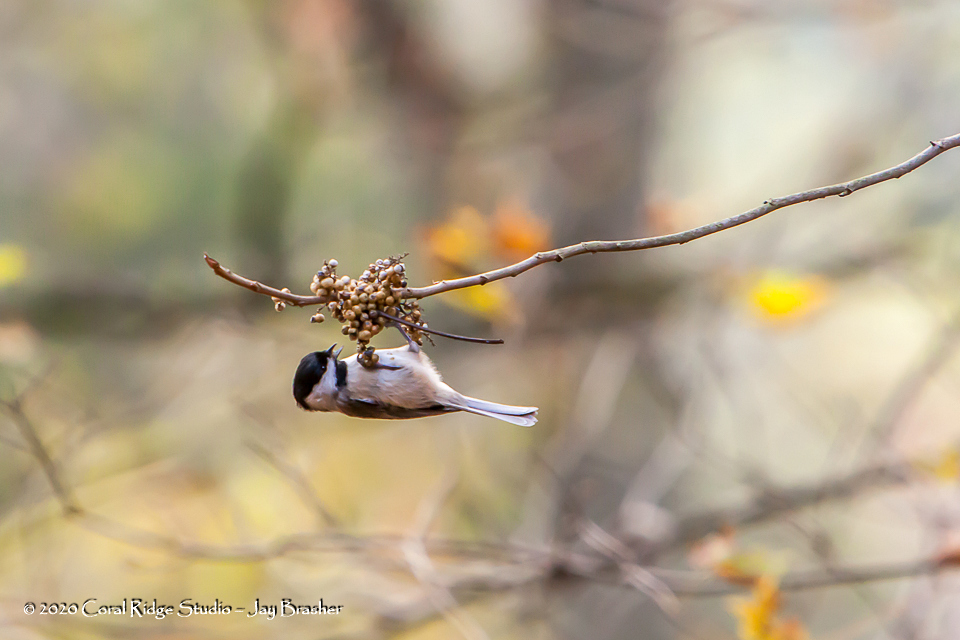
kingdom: Animalia
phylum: Chordata
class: Aves
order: Passeriformes
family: Paridae
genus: Poecile
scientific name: Poecile carolinensis
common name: Carolina chickadee
